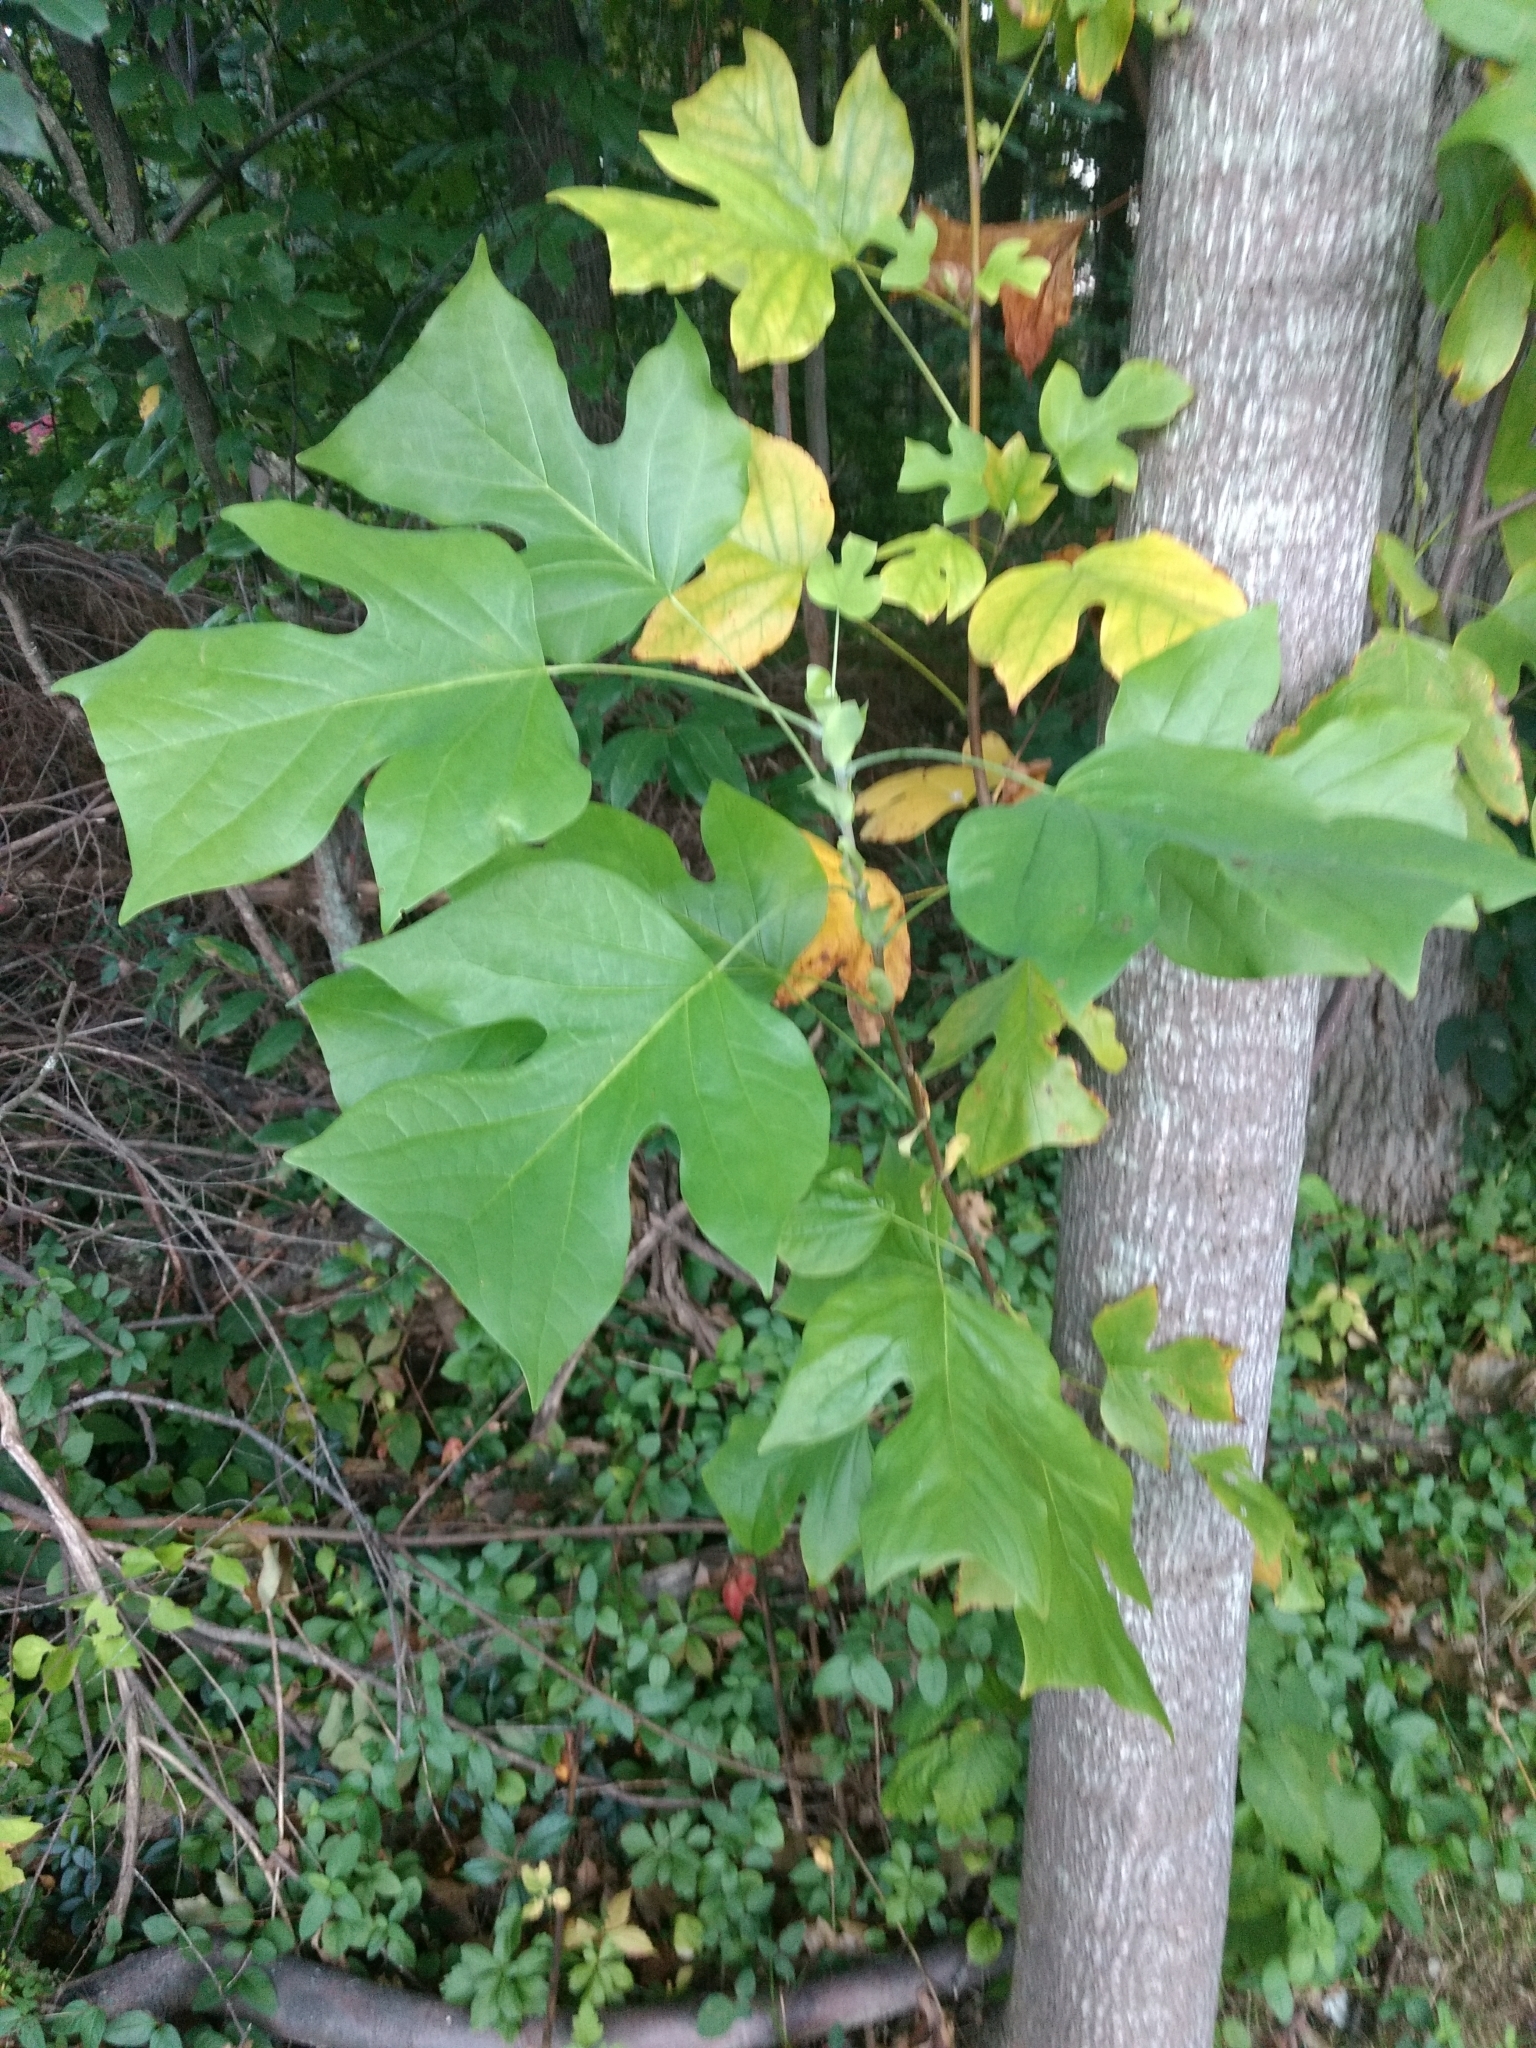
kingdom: Plantae
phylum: Tracheophyta
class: Magnoliopsida
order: Magnoliales
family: Magnoliaceae
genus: Liriodendron
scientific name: Liriodendron tulipifera
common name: Tulip tree
